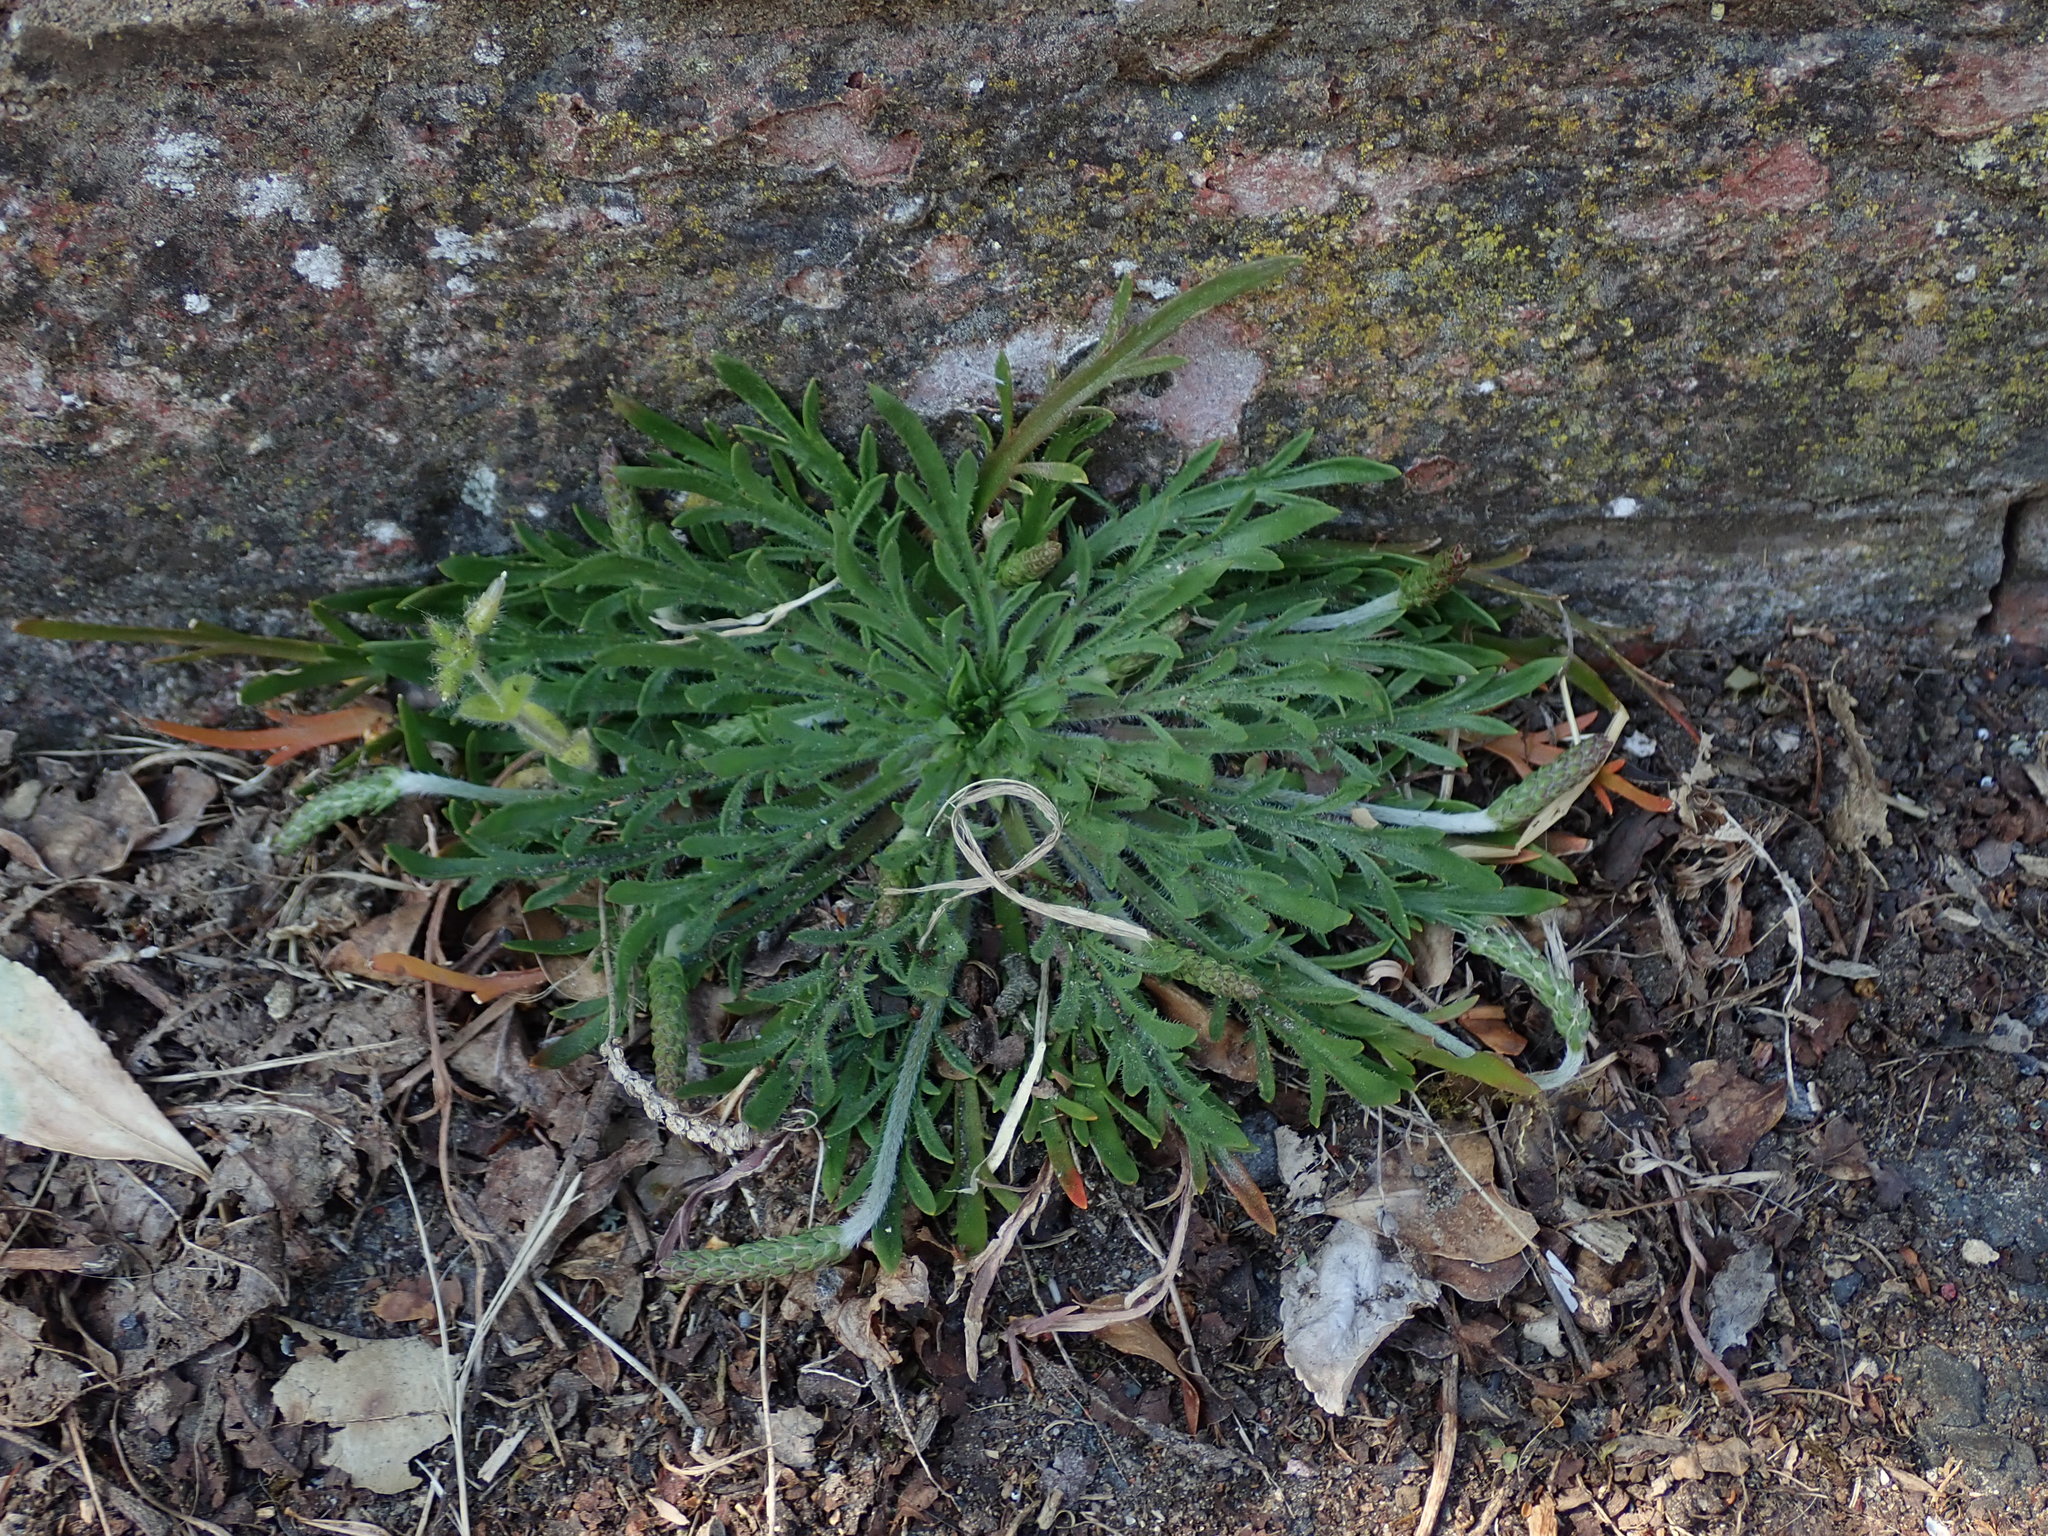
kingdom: Plantae
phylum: Tracheophyta
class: Magnoliopsida
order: Lamiales
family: Plantaginaceae
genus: Plantago
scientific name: Plantago coronopus
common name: Buck's-horn plantain
